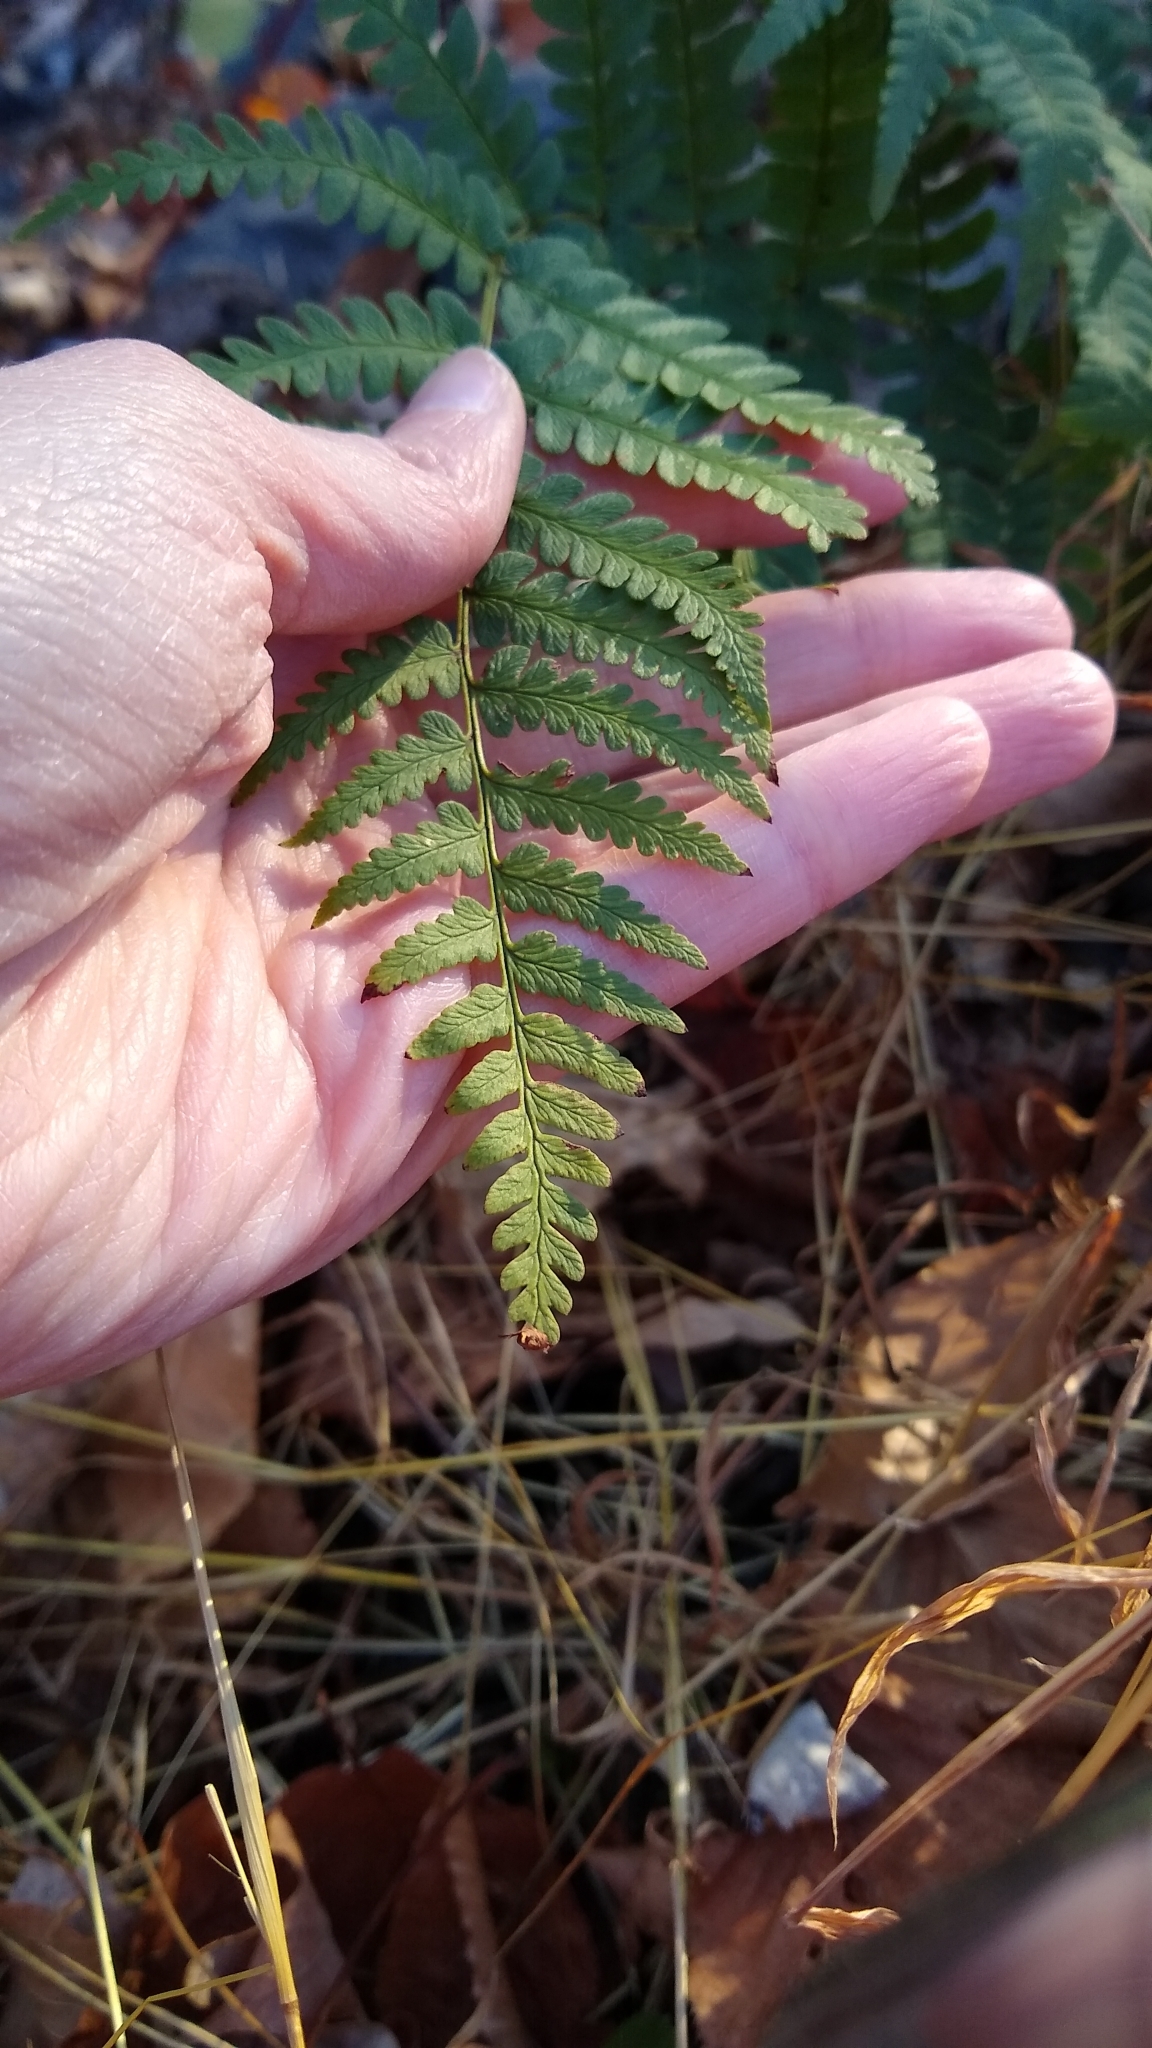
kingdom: Plantae
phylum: Tracheophyta
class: Polypodiopsida
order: Polypodiales
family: Dryopteridaceae
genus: Dryopteris
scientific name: Dryopteris marginalis
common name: Marginal wood fern
